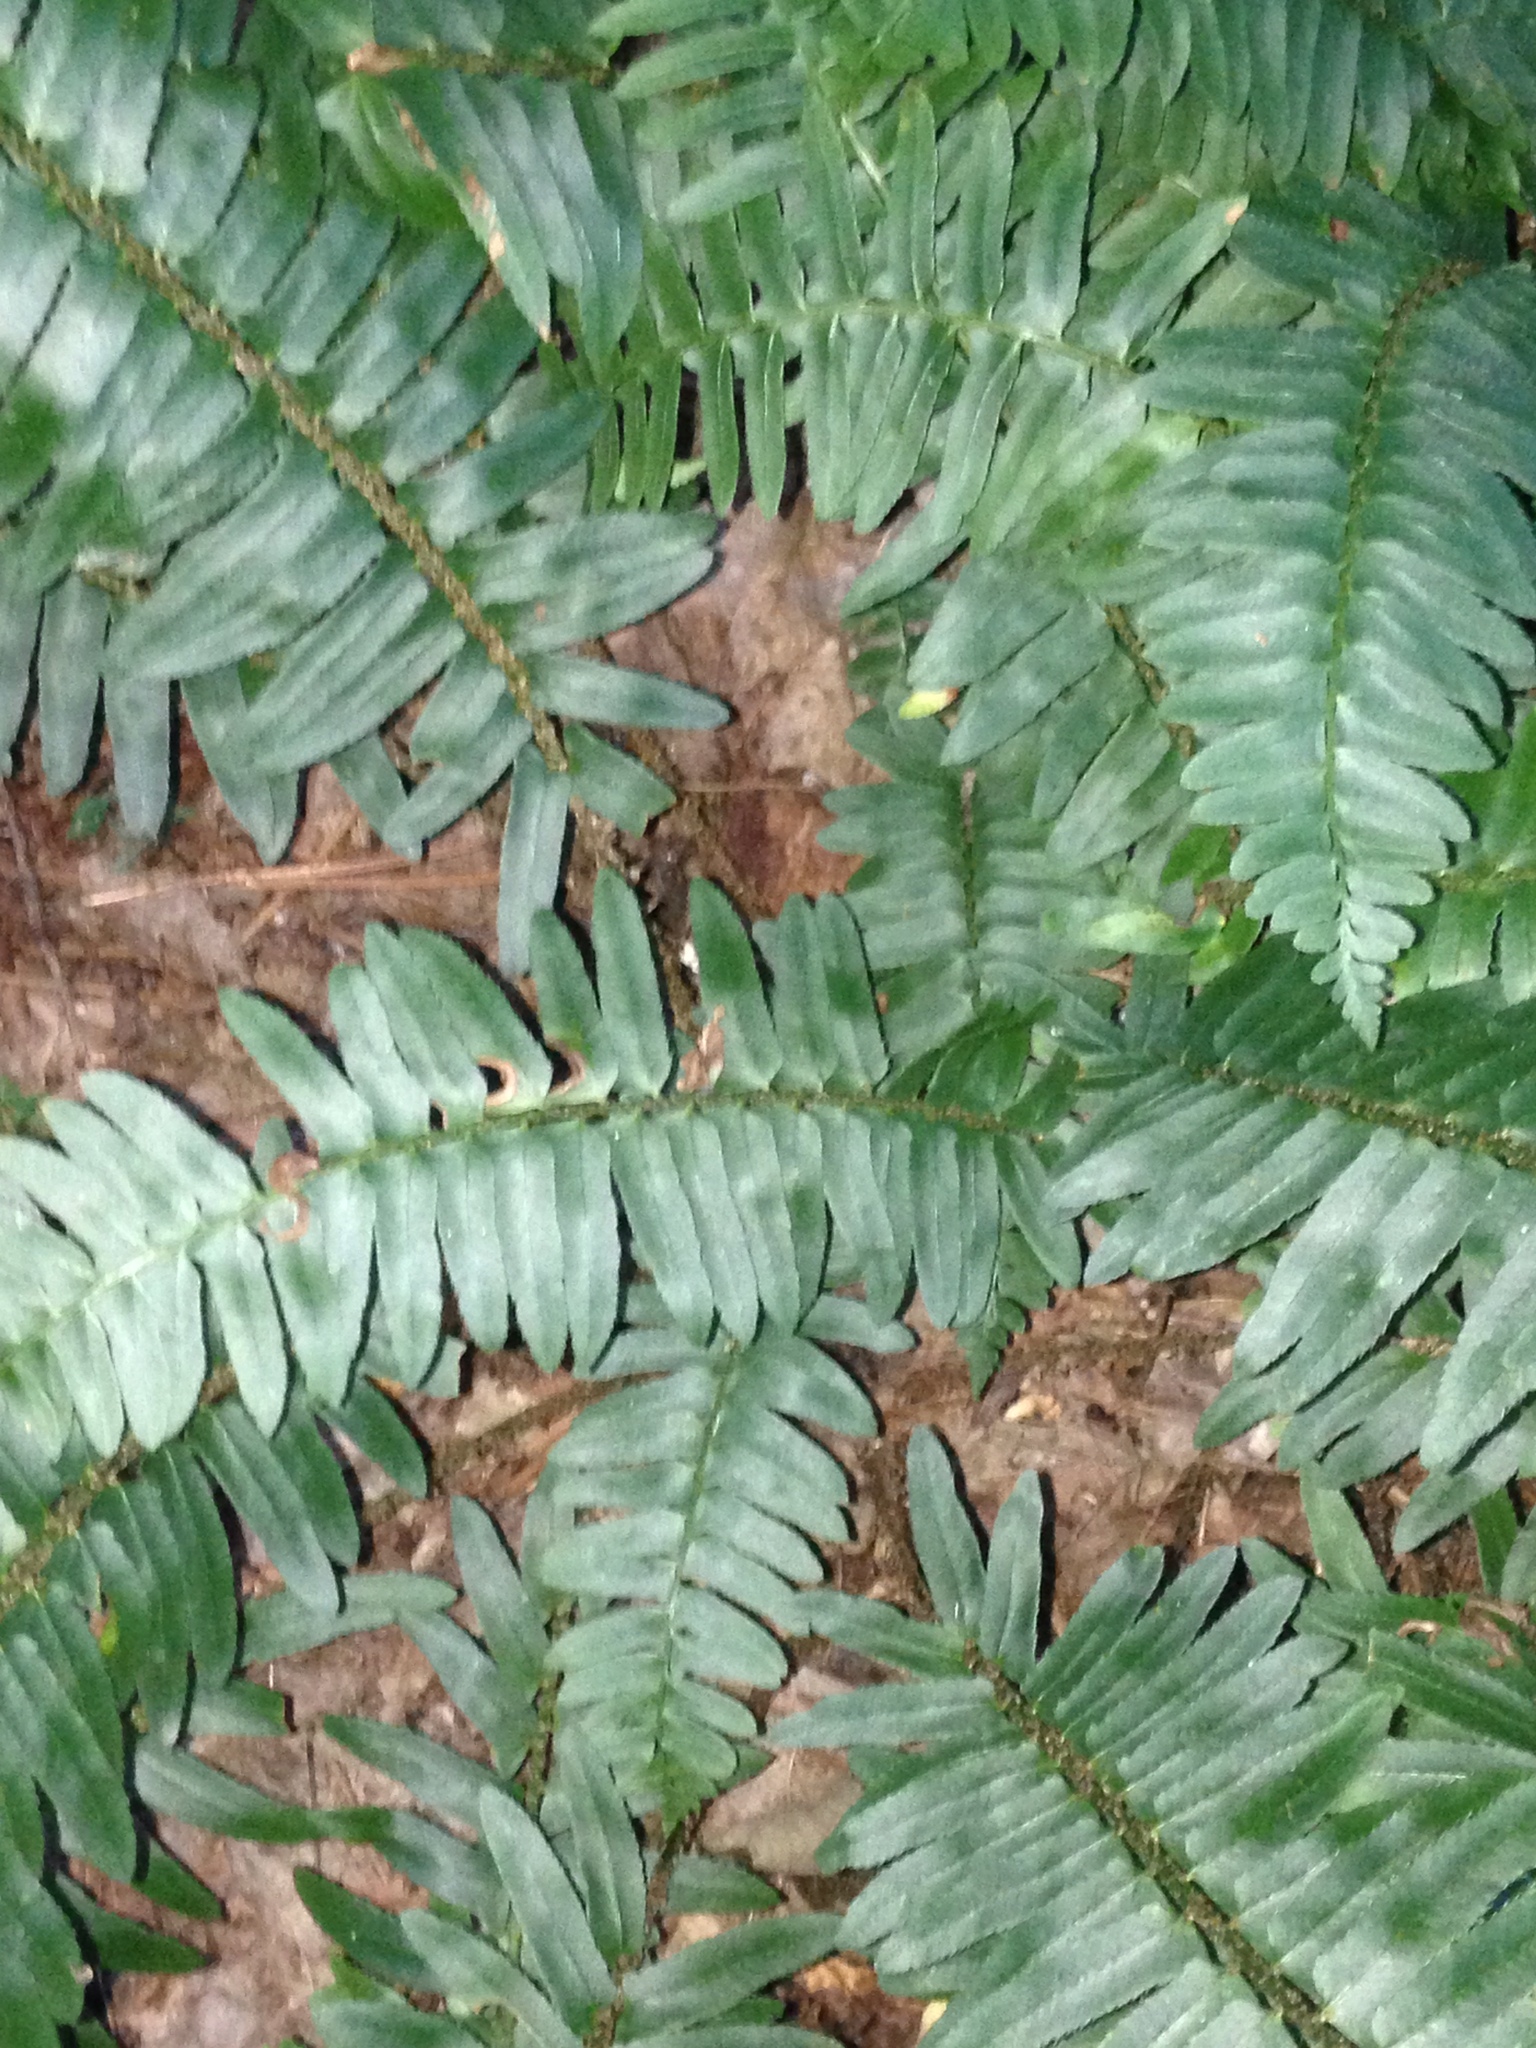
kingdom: Plantae
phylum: Tracheophyta
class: Polypodiopsida
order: Polypodiales
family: Dryopteridaceae
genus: Polystichum
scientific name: Polystichum acrostichoides
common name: Christmas fern
